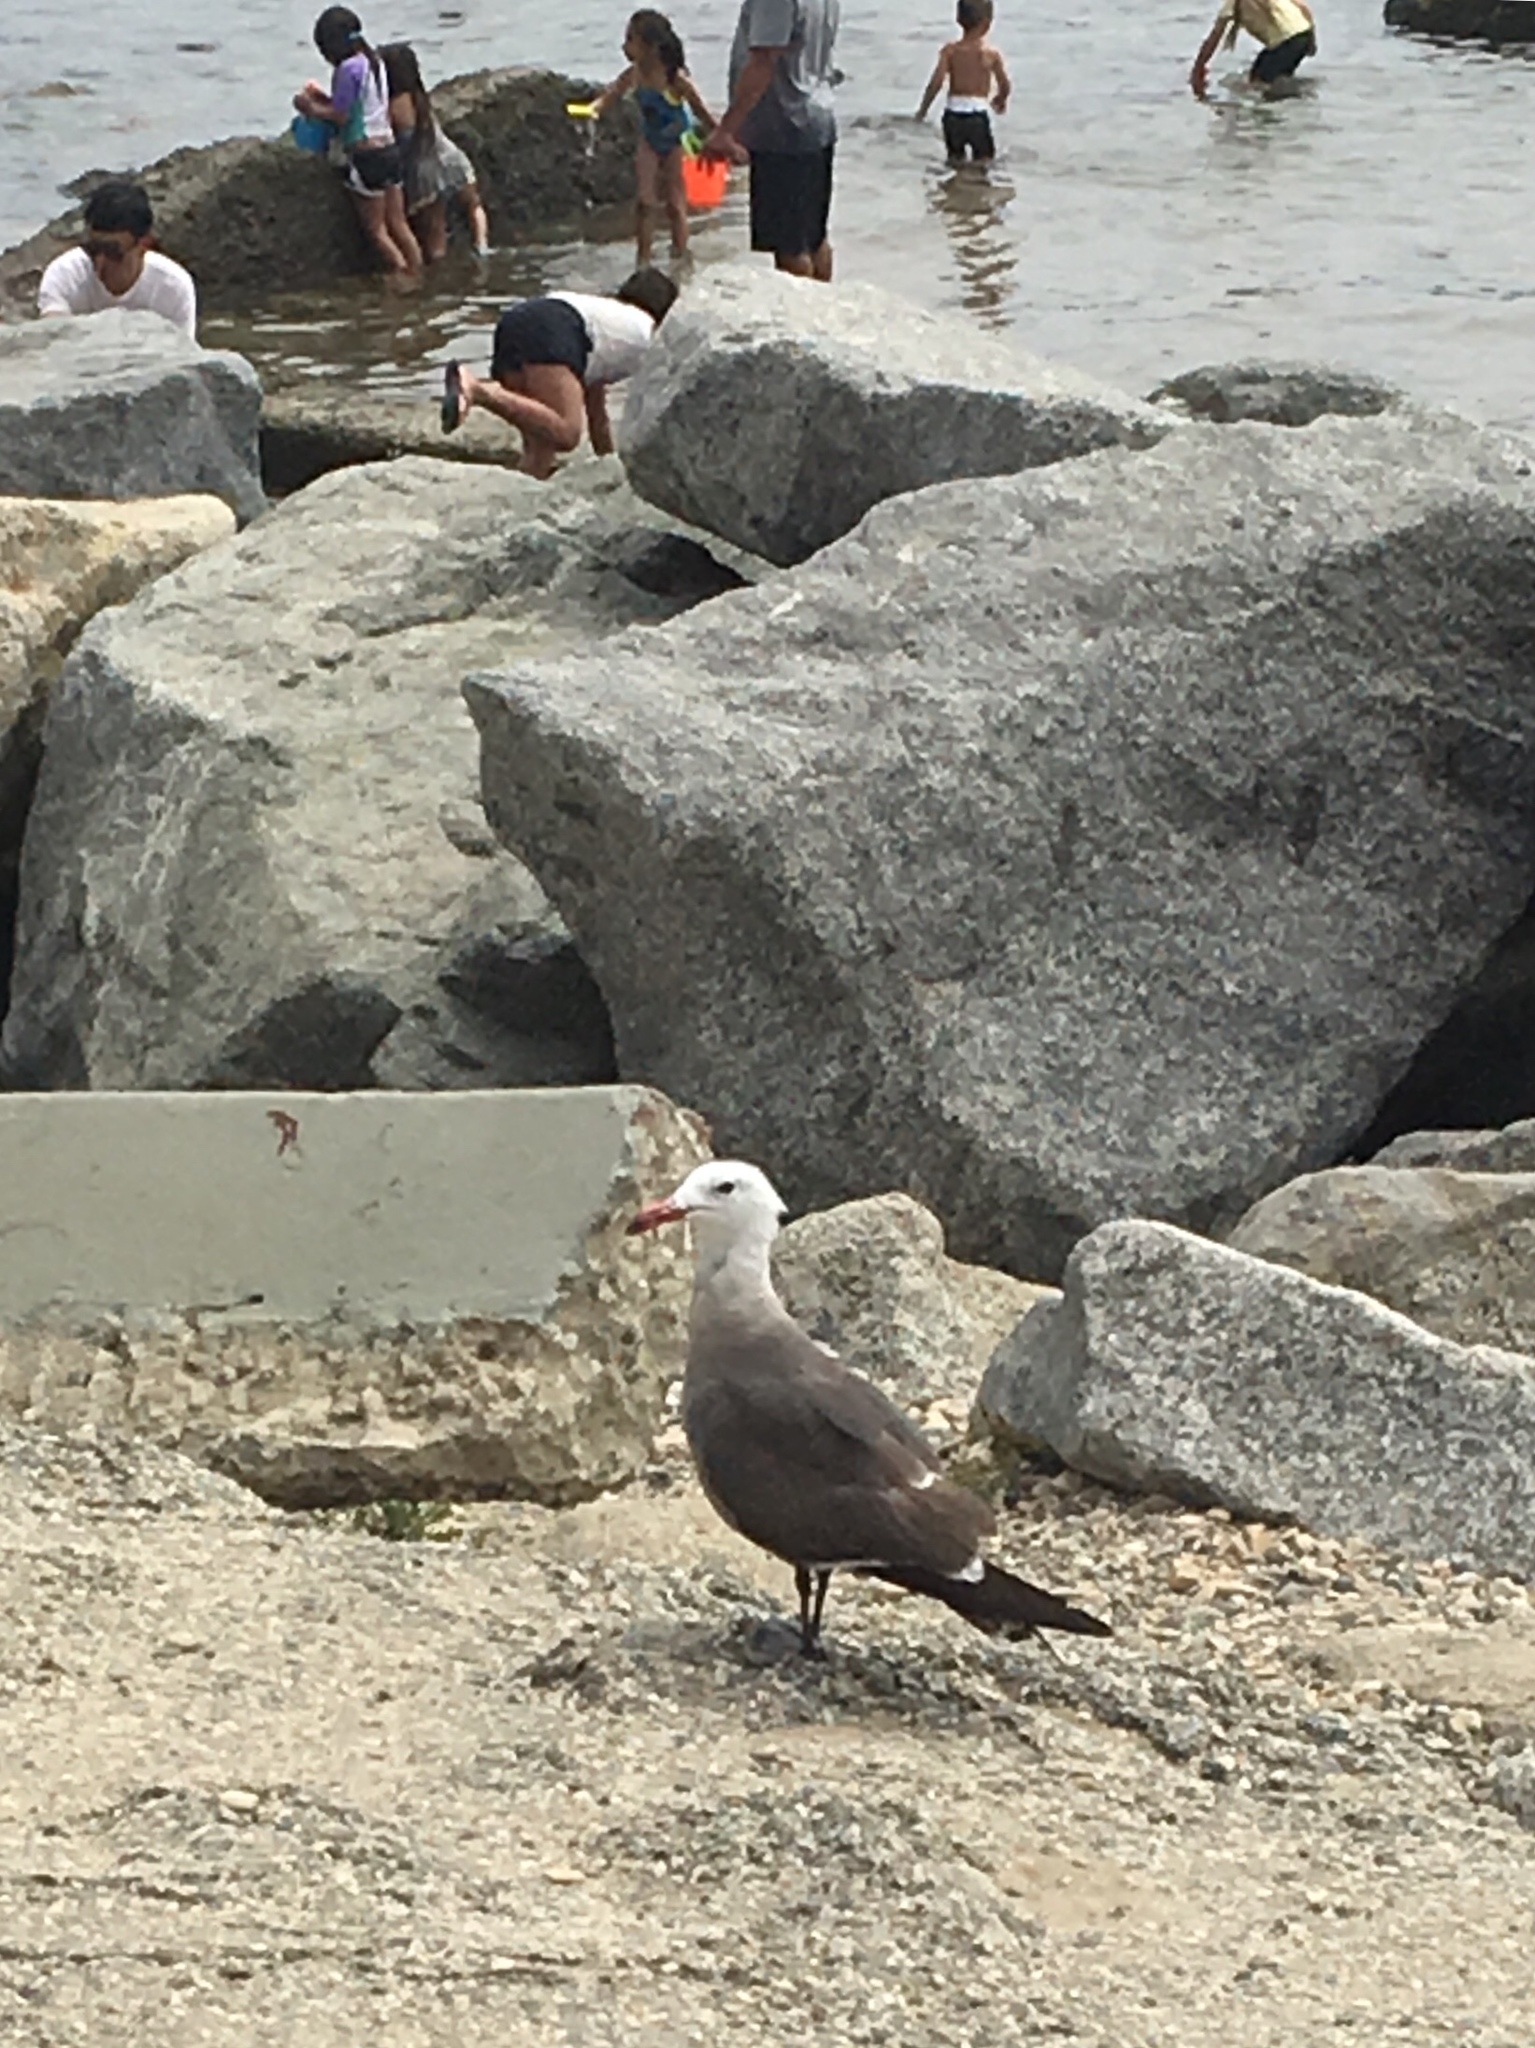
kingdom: Animalia
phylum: Chordata
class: Aves
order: Charadriiformes
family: Laridae
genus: Larus
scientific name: Larus heermanni
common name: Heermann's gull
